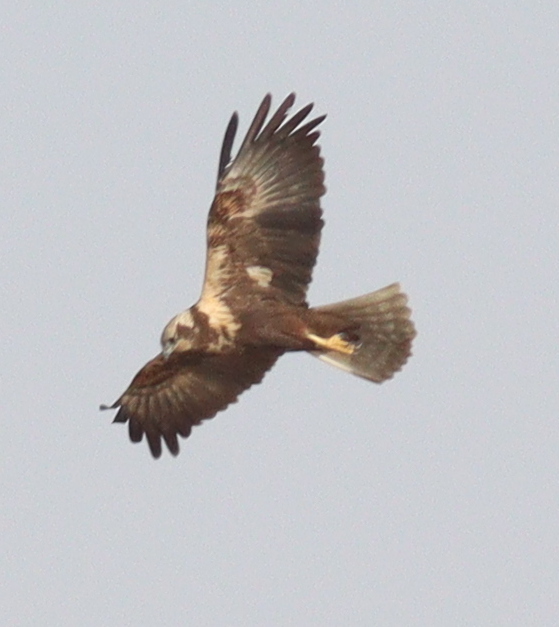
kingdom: Animalia
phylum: Chordata
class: Aves
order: Accipitriformes
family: Accipitridae
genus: Circus
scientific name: Circus aeruginosus
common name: Western marsh harrier
